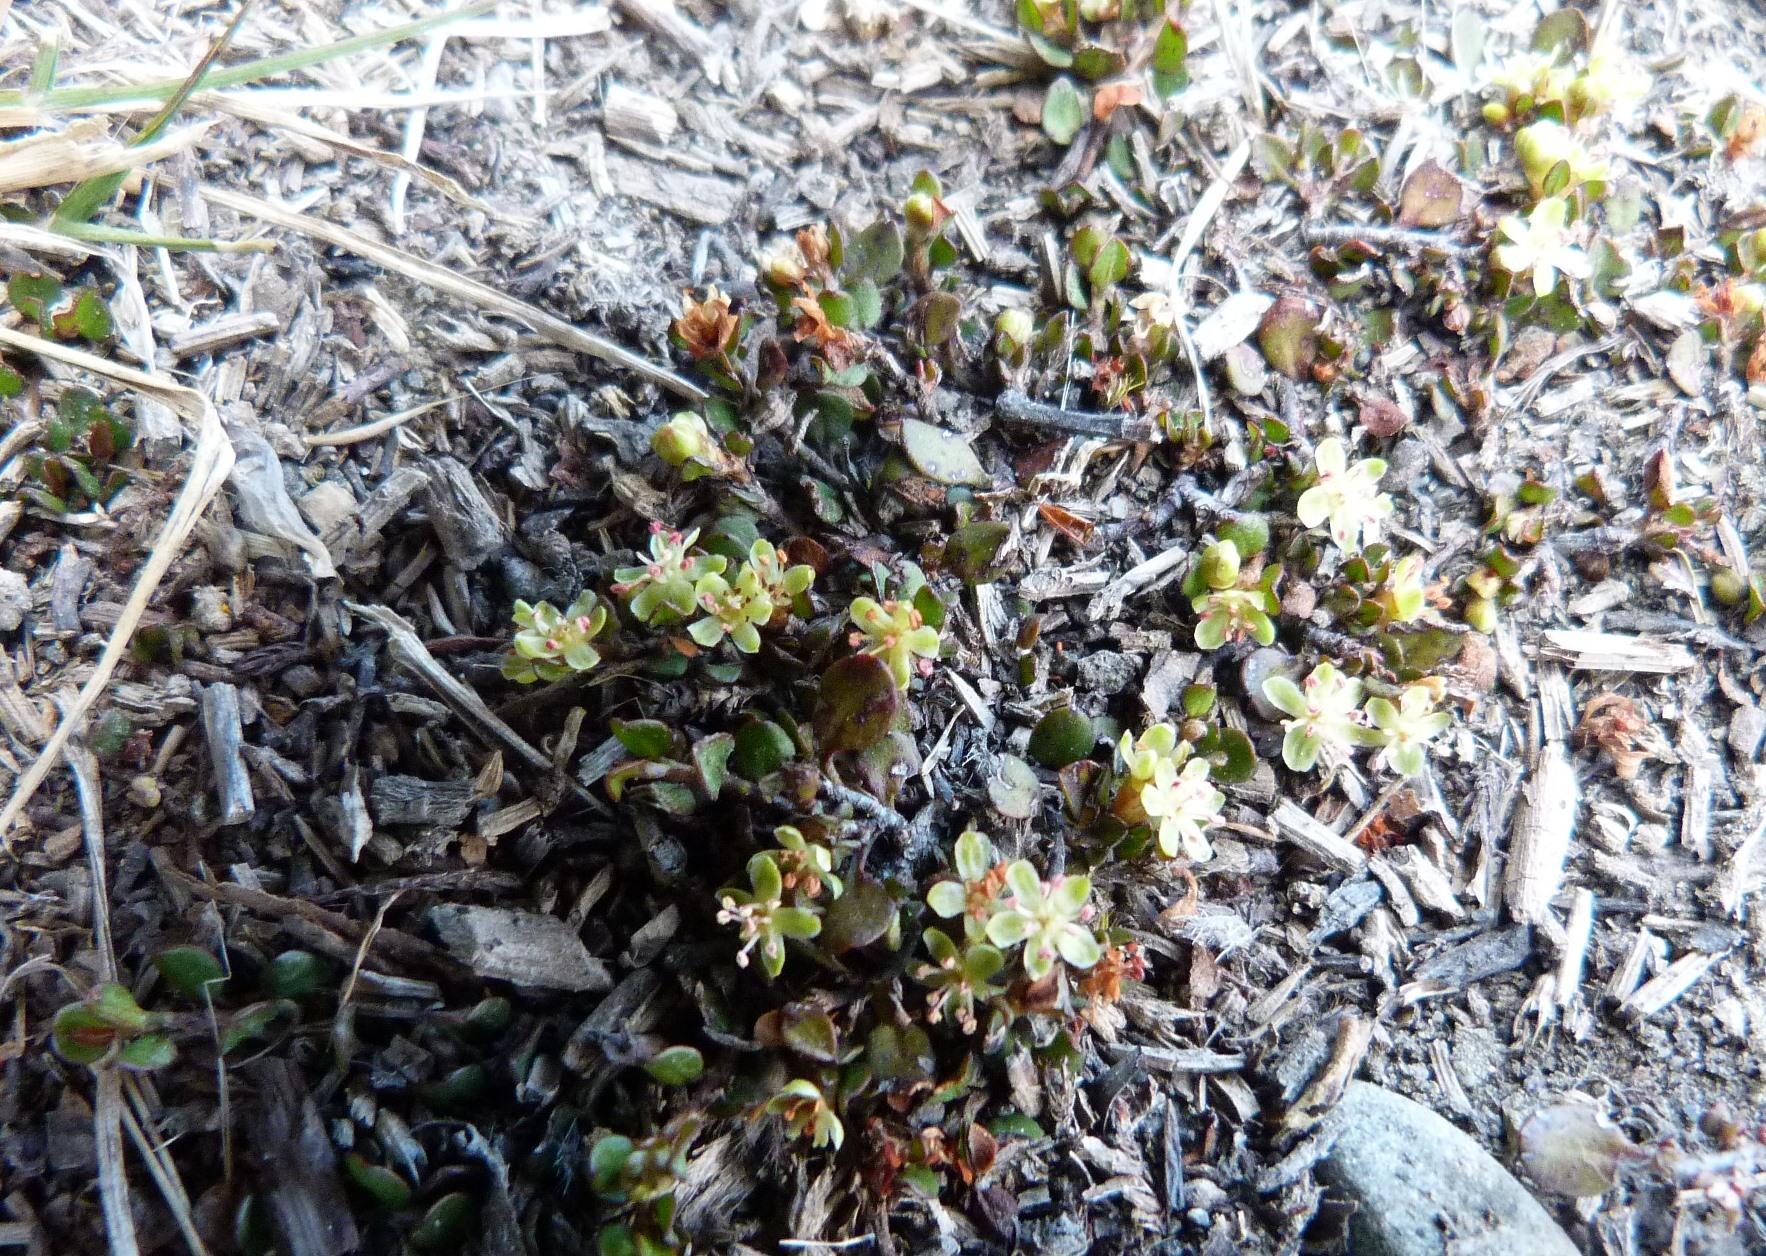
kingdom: Plantae
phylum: Tracheophyta
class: Magnoliopsida
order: Caryophyllales
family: Polygonaceae
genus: Muehlenbeckia
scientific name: Muehlenbeckia axillaris
